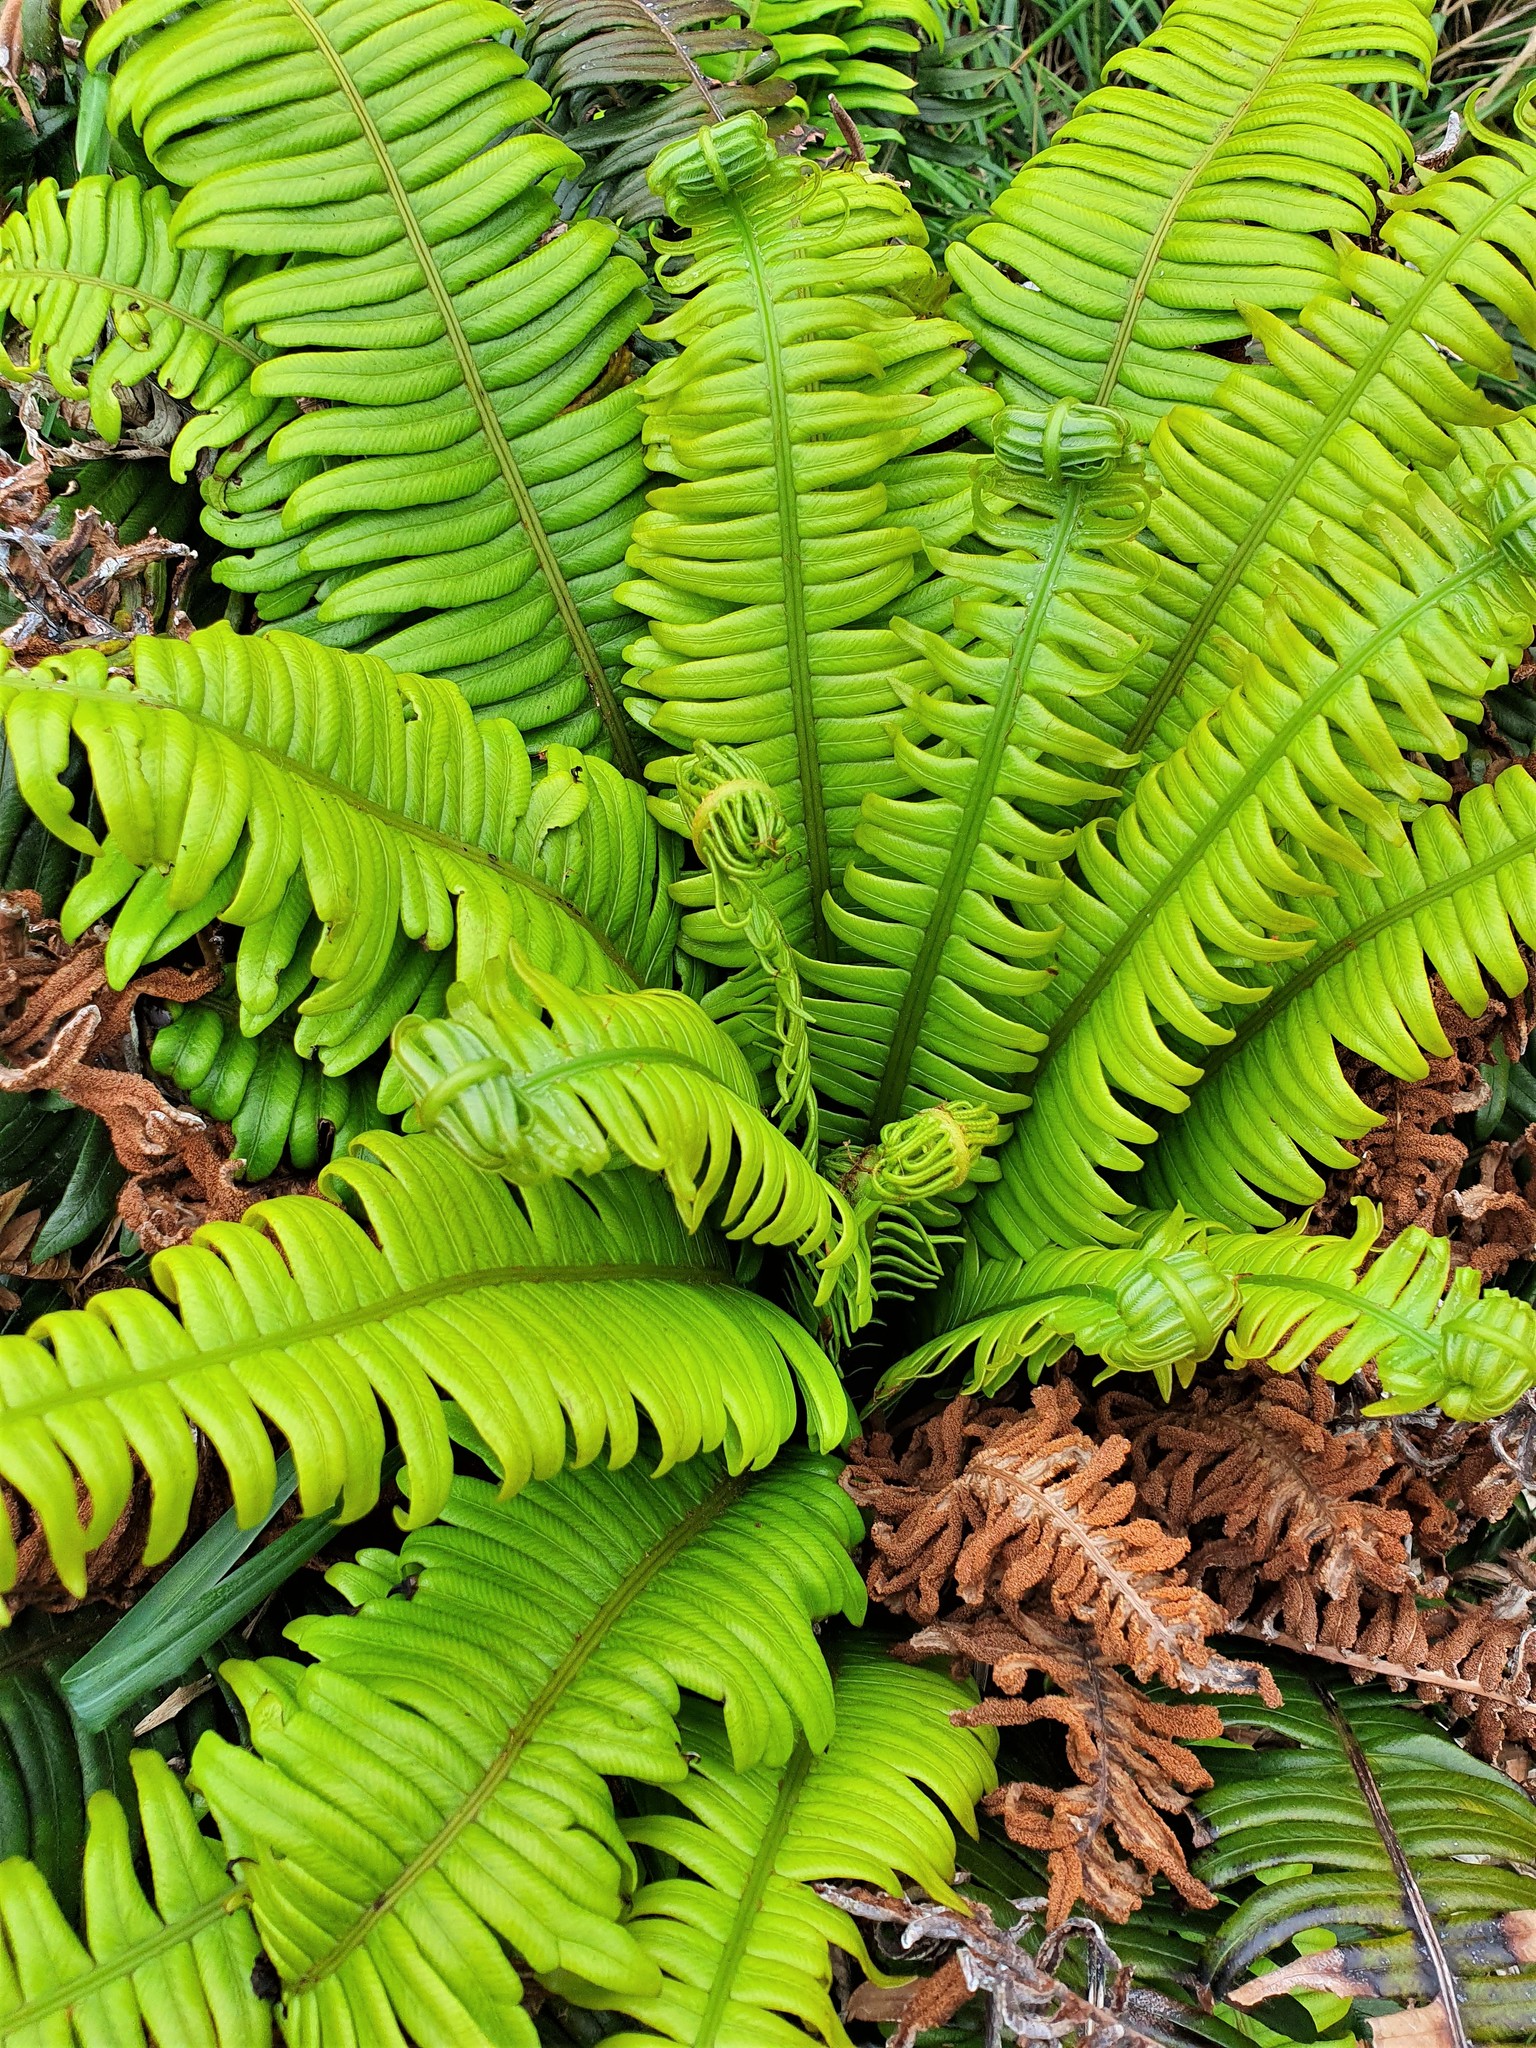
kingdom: Plantae
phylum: Tracheophyta
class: Polypodiopsida
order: Polypodiales
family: Blechnaceae
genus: Austroblechnum
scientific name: Austroblechnum durum
